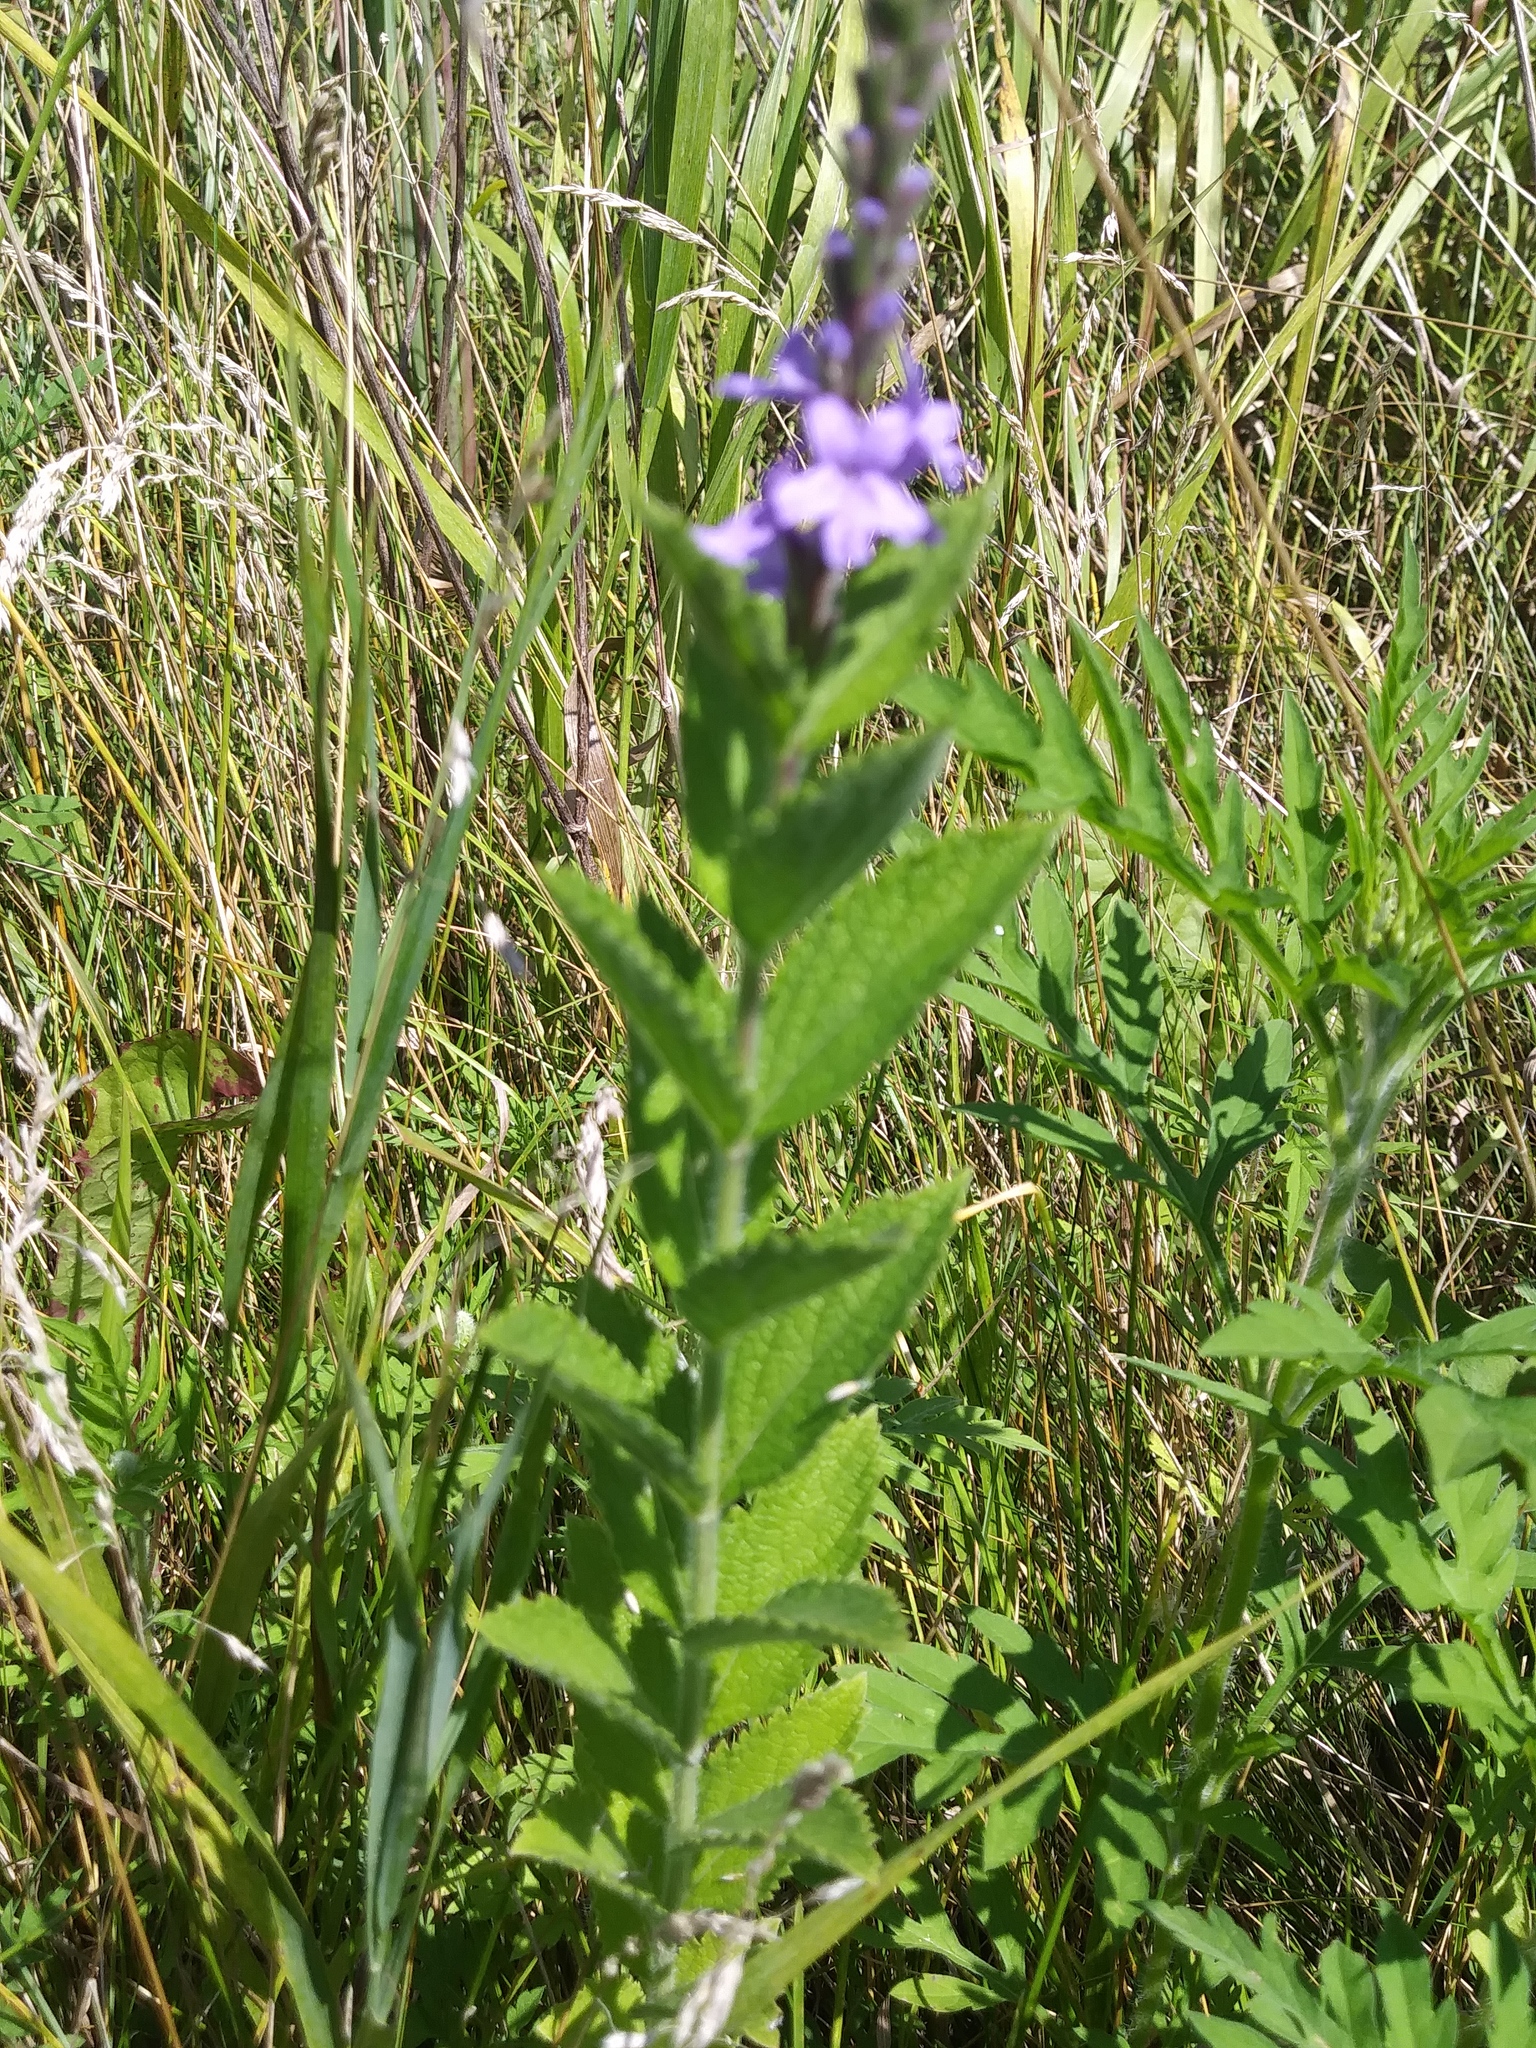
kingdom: Plantae
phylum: Tracheophyta
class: Magnoliopsida
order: Lamiales
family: Verbenaceae
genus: Verbena
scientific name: Verbena stricta
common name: Hoary vervain
